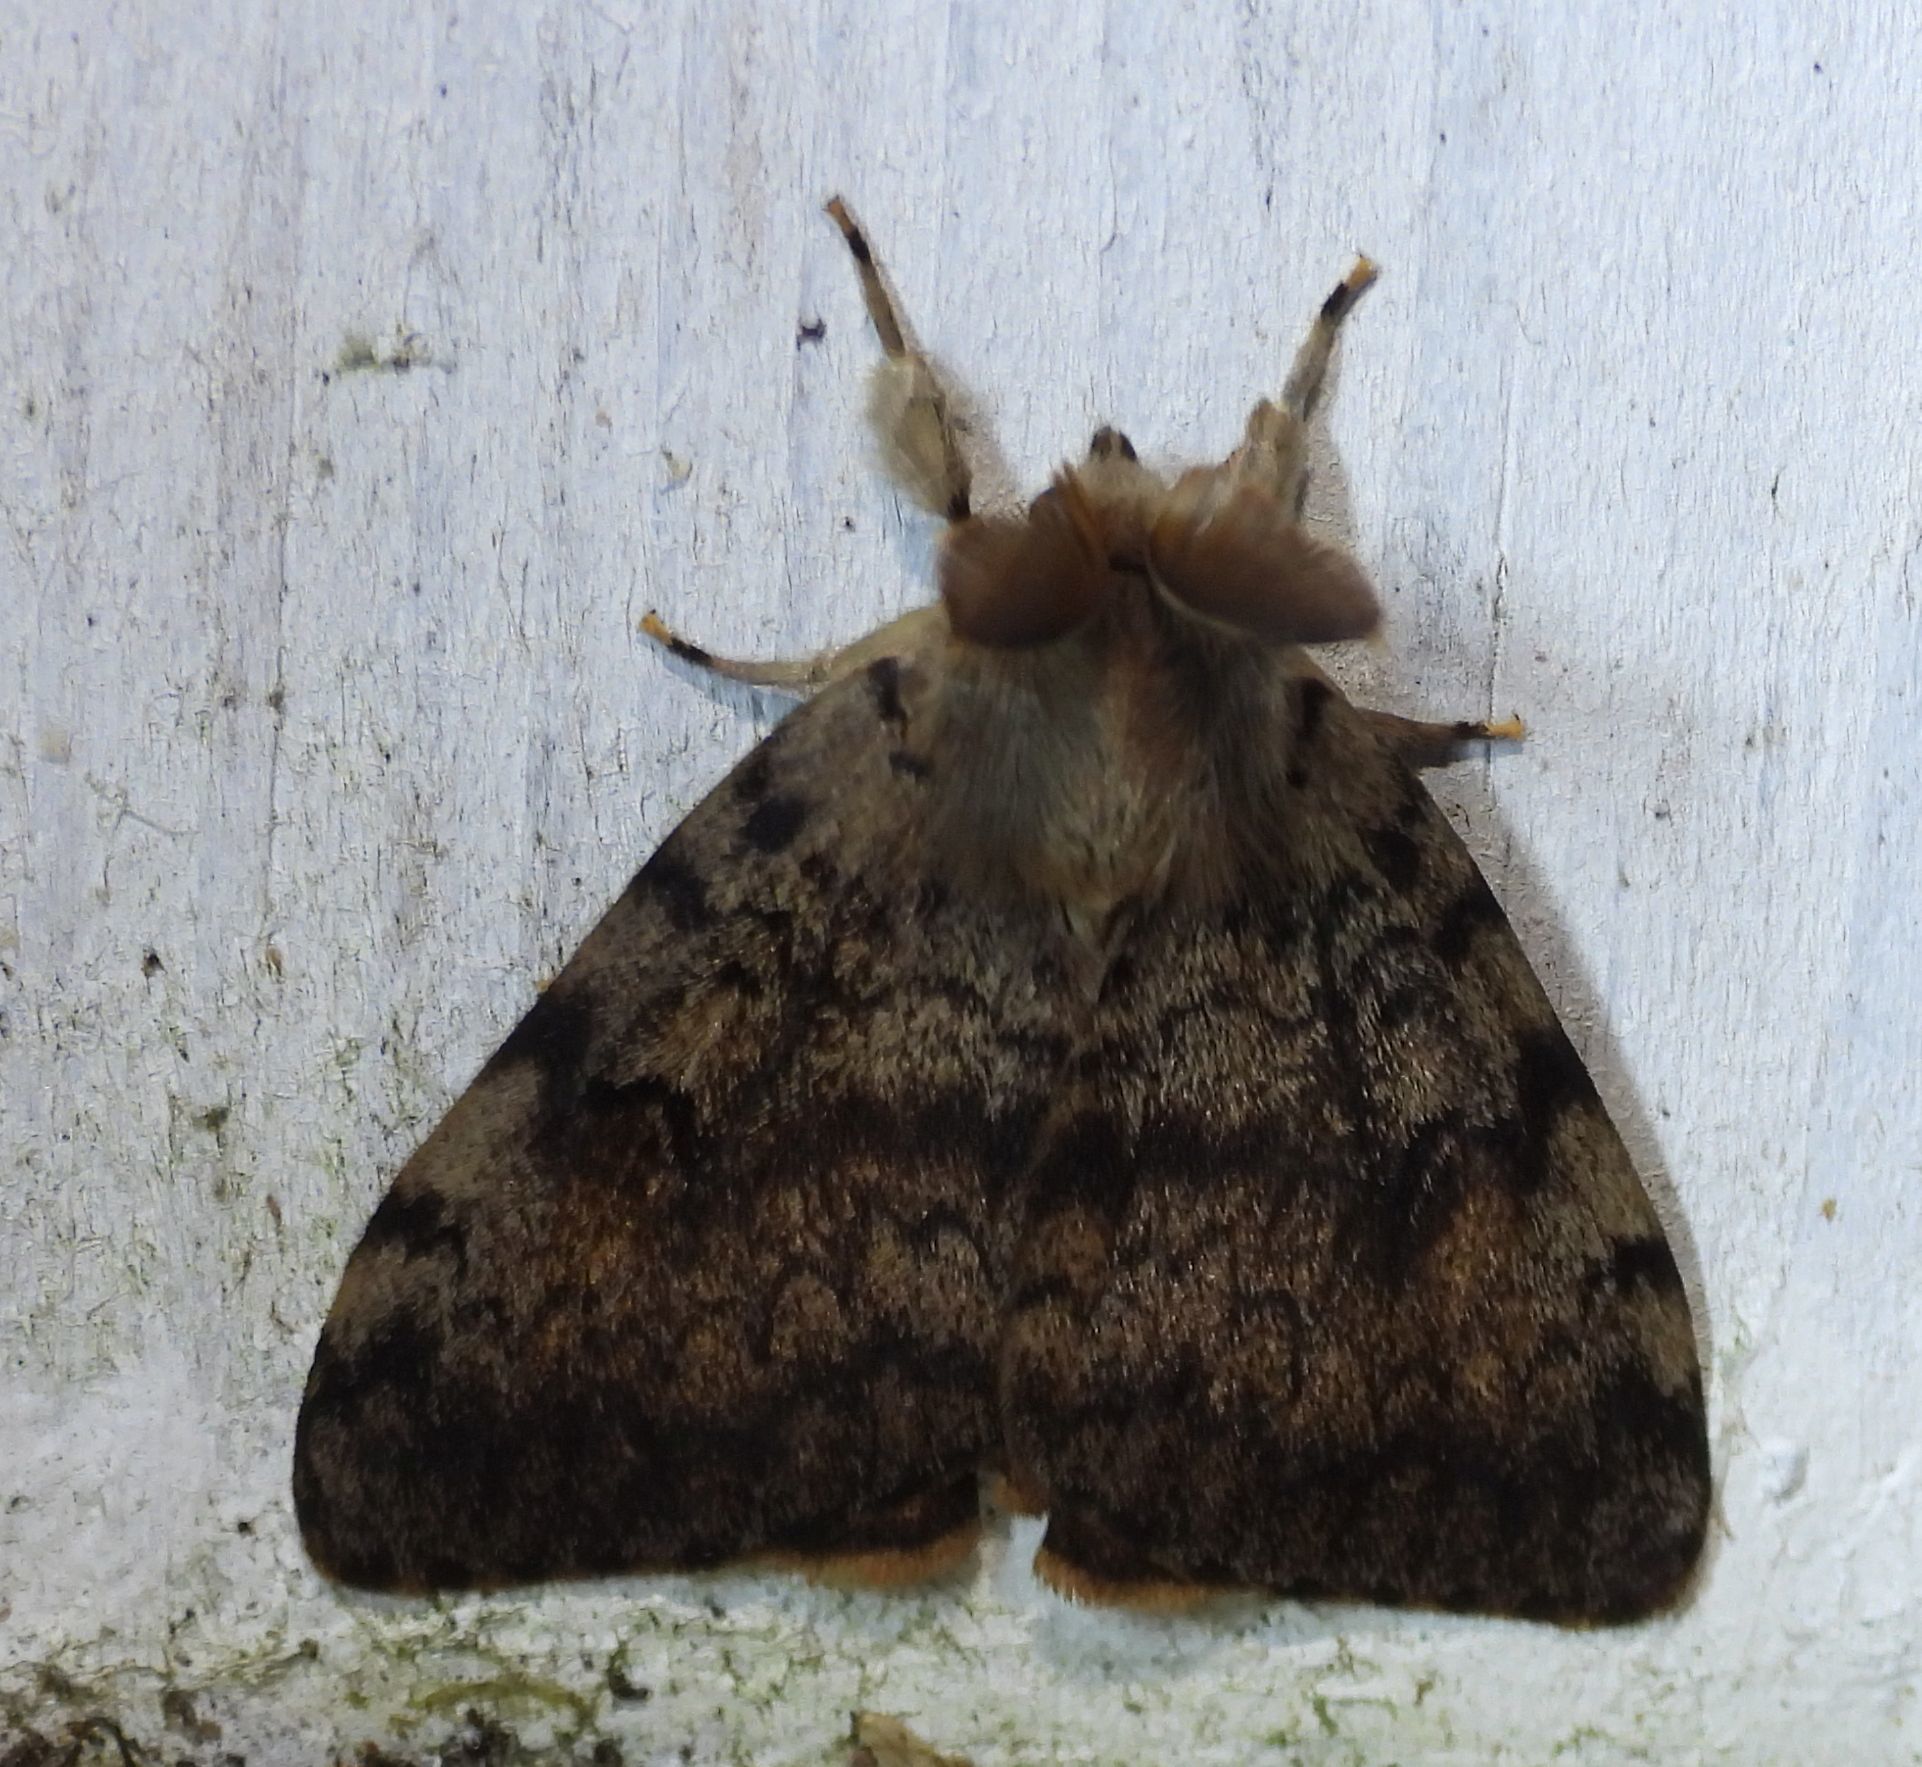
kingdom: Animalia
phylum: Arthropoda
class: Insecta
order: Lepidoptera
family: Erebidae
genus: Lymantria
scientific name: Lymantria dispar
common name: Gypsy moth
